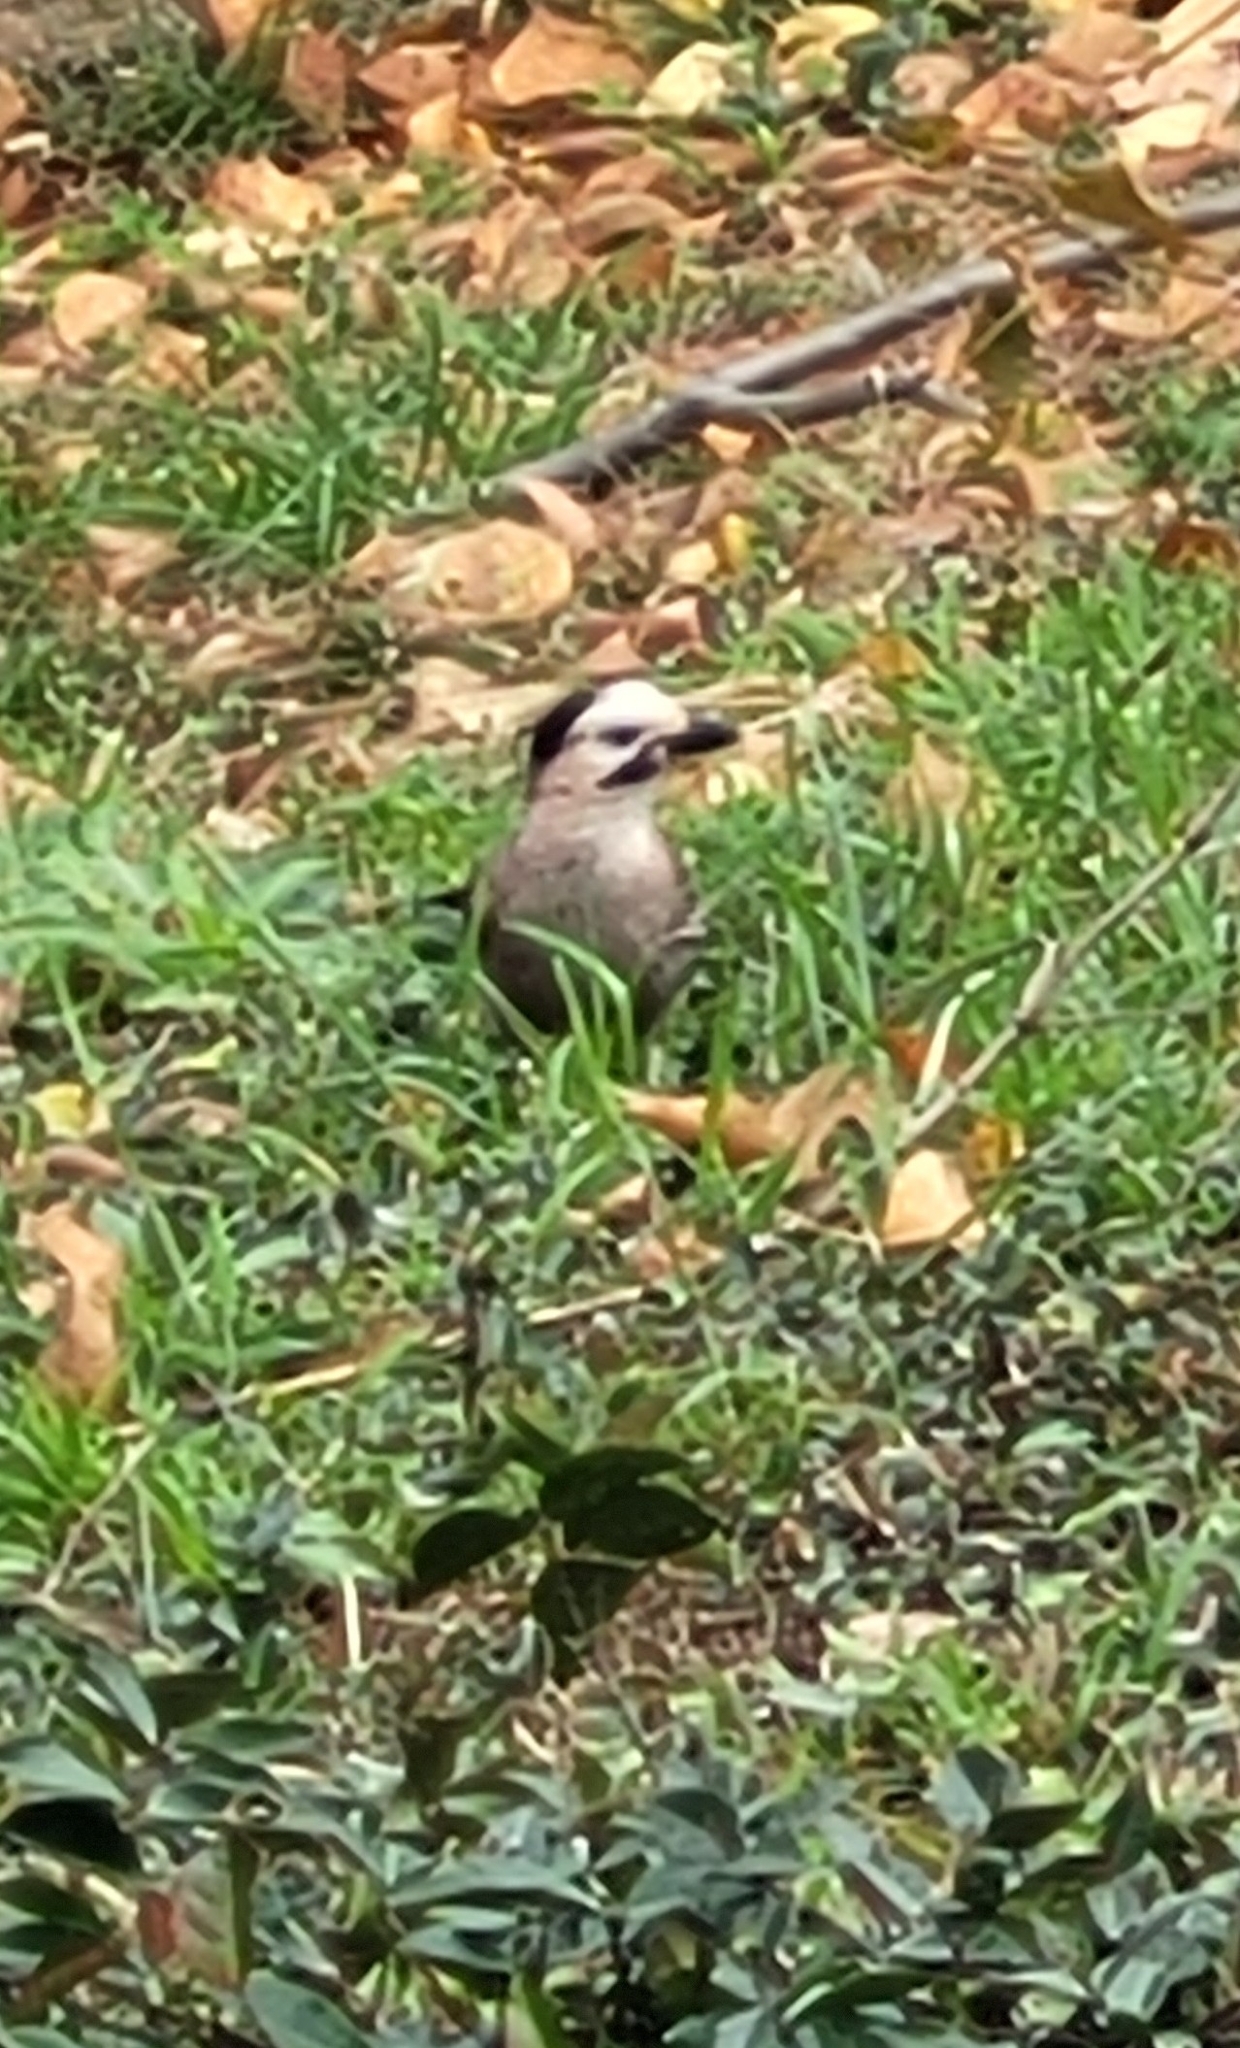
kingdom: Animalia
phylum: Chordata
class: Aves
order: Passeriformes
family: Corvidae
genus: Garrulus
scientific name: Garrulus glandarius
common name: Eurasian jay
